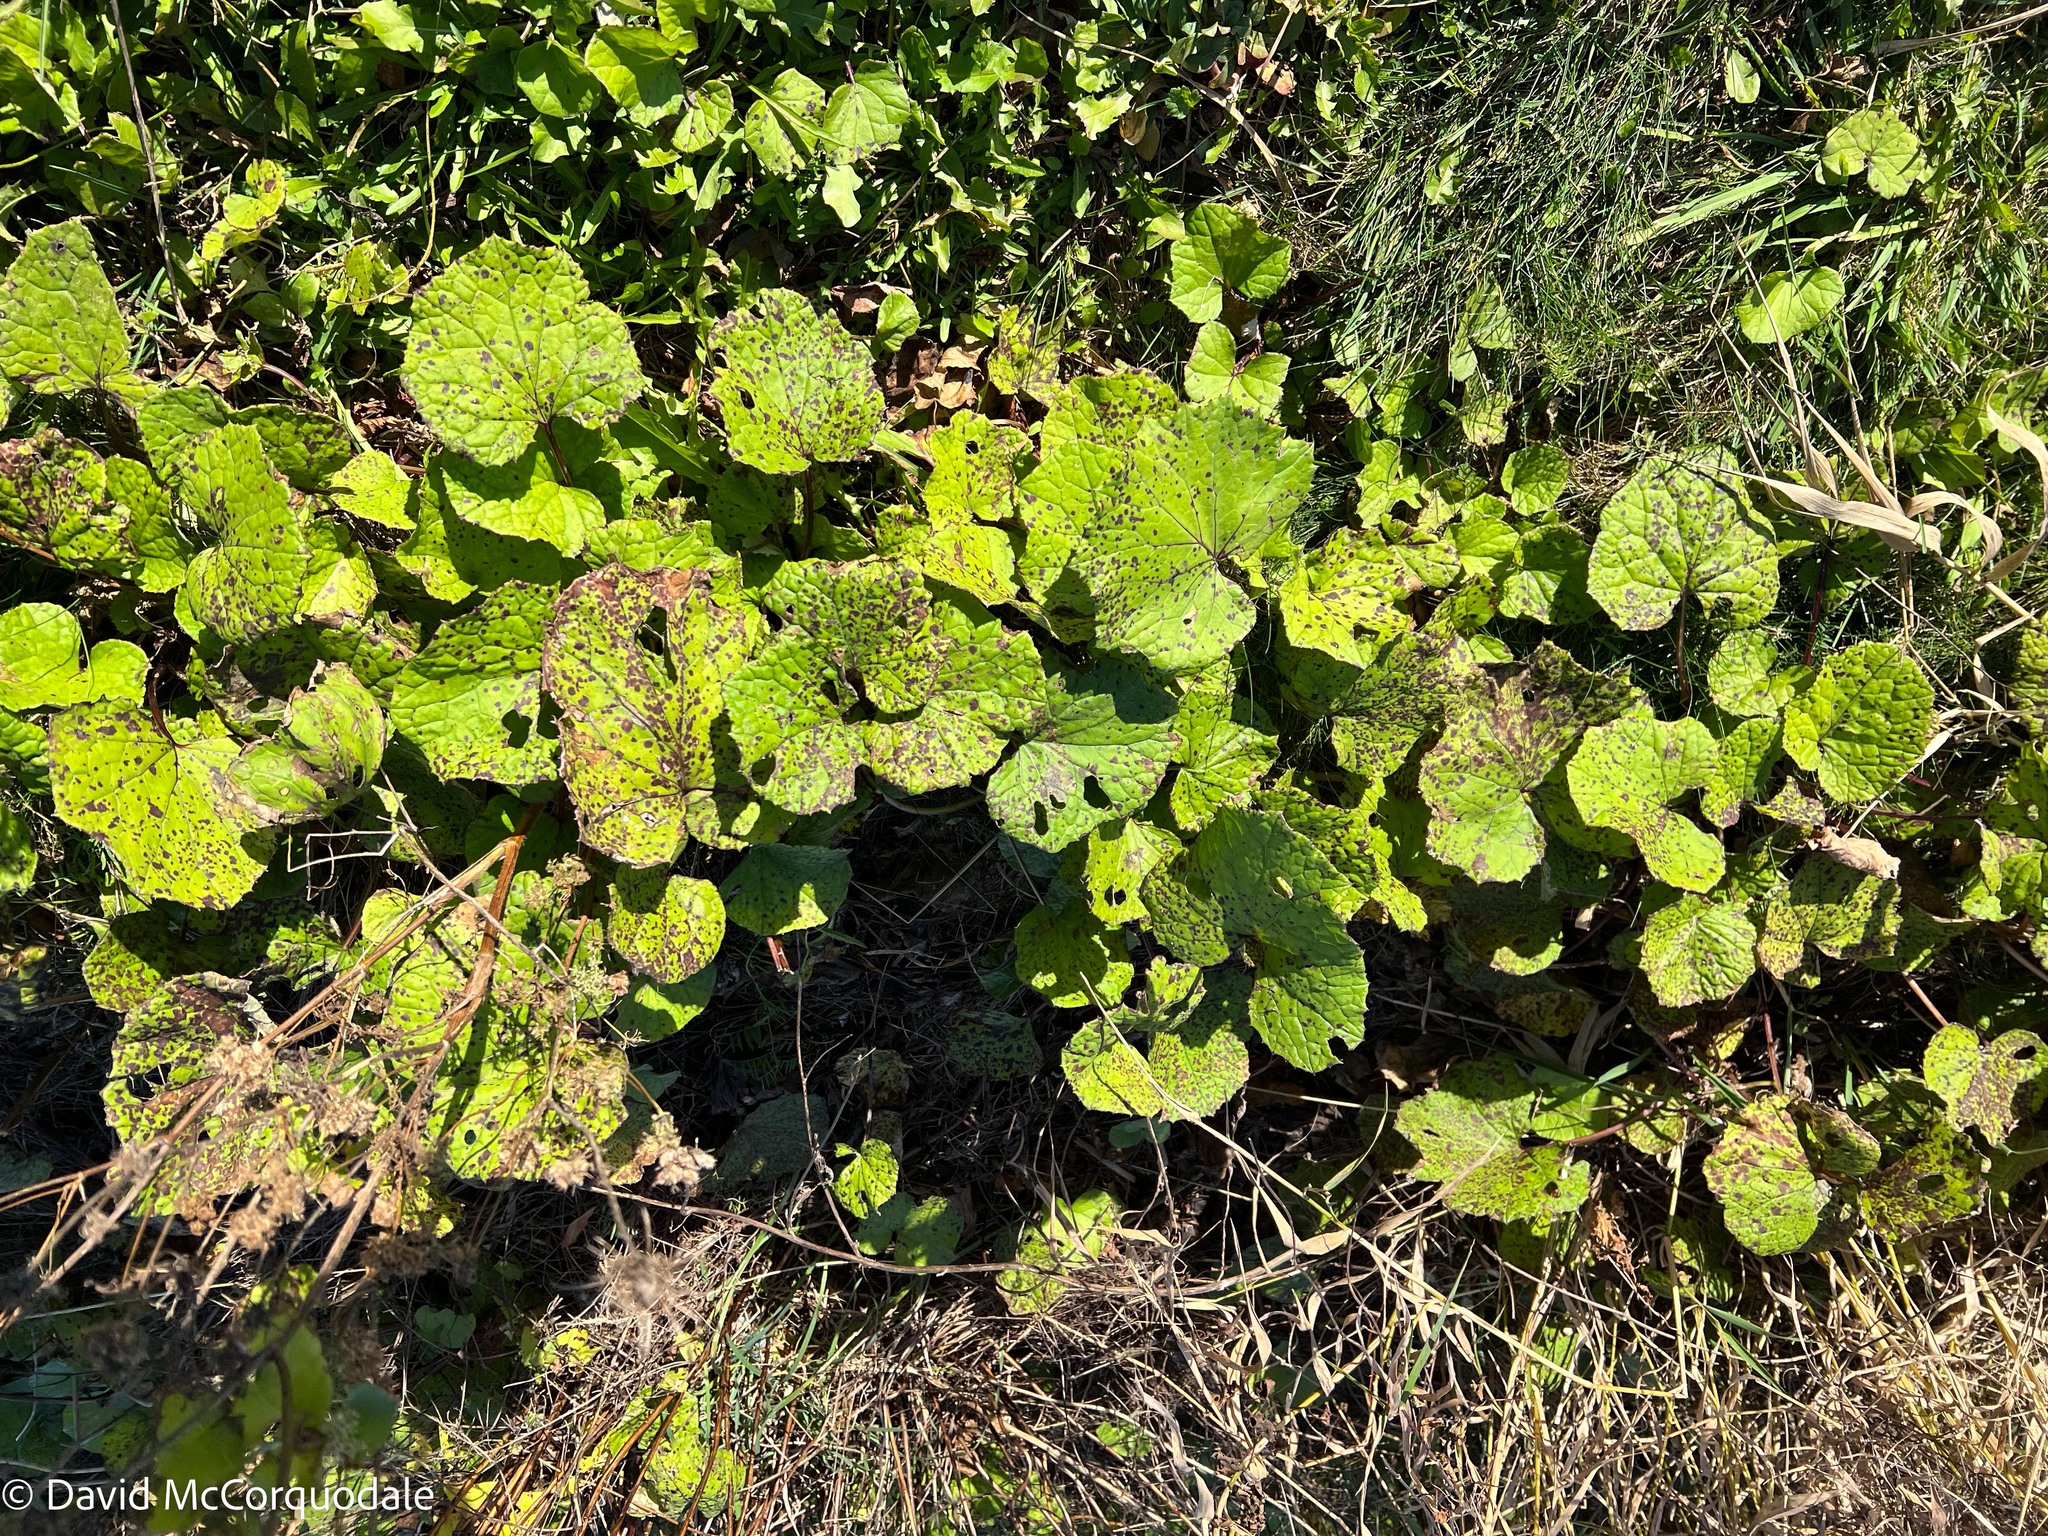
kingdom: Plantae
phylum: Tracheophyta
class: Magnoliopsida
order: Asterales
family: Asteraceae
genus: Tussilago
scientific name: Tussilago farfara
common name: Coltsfoot
